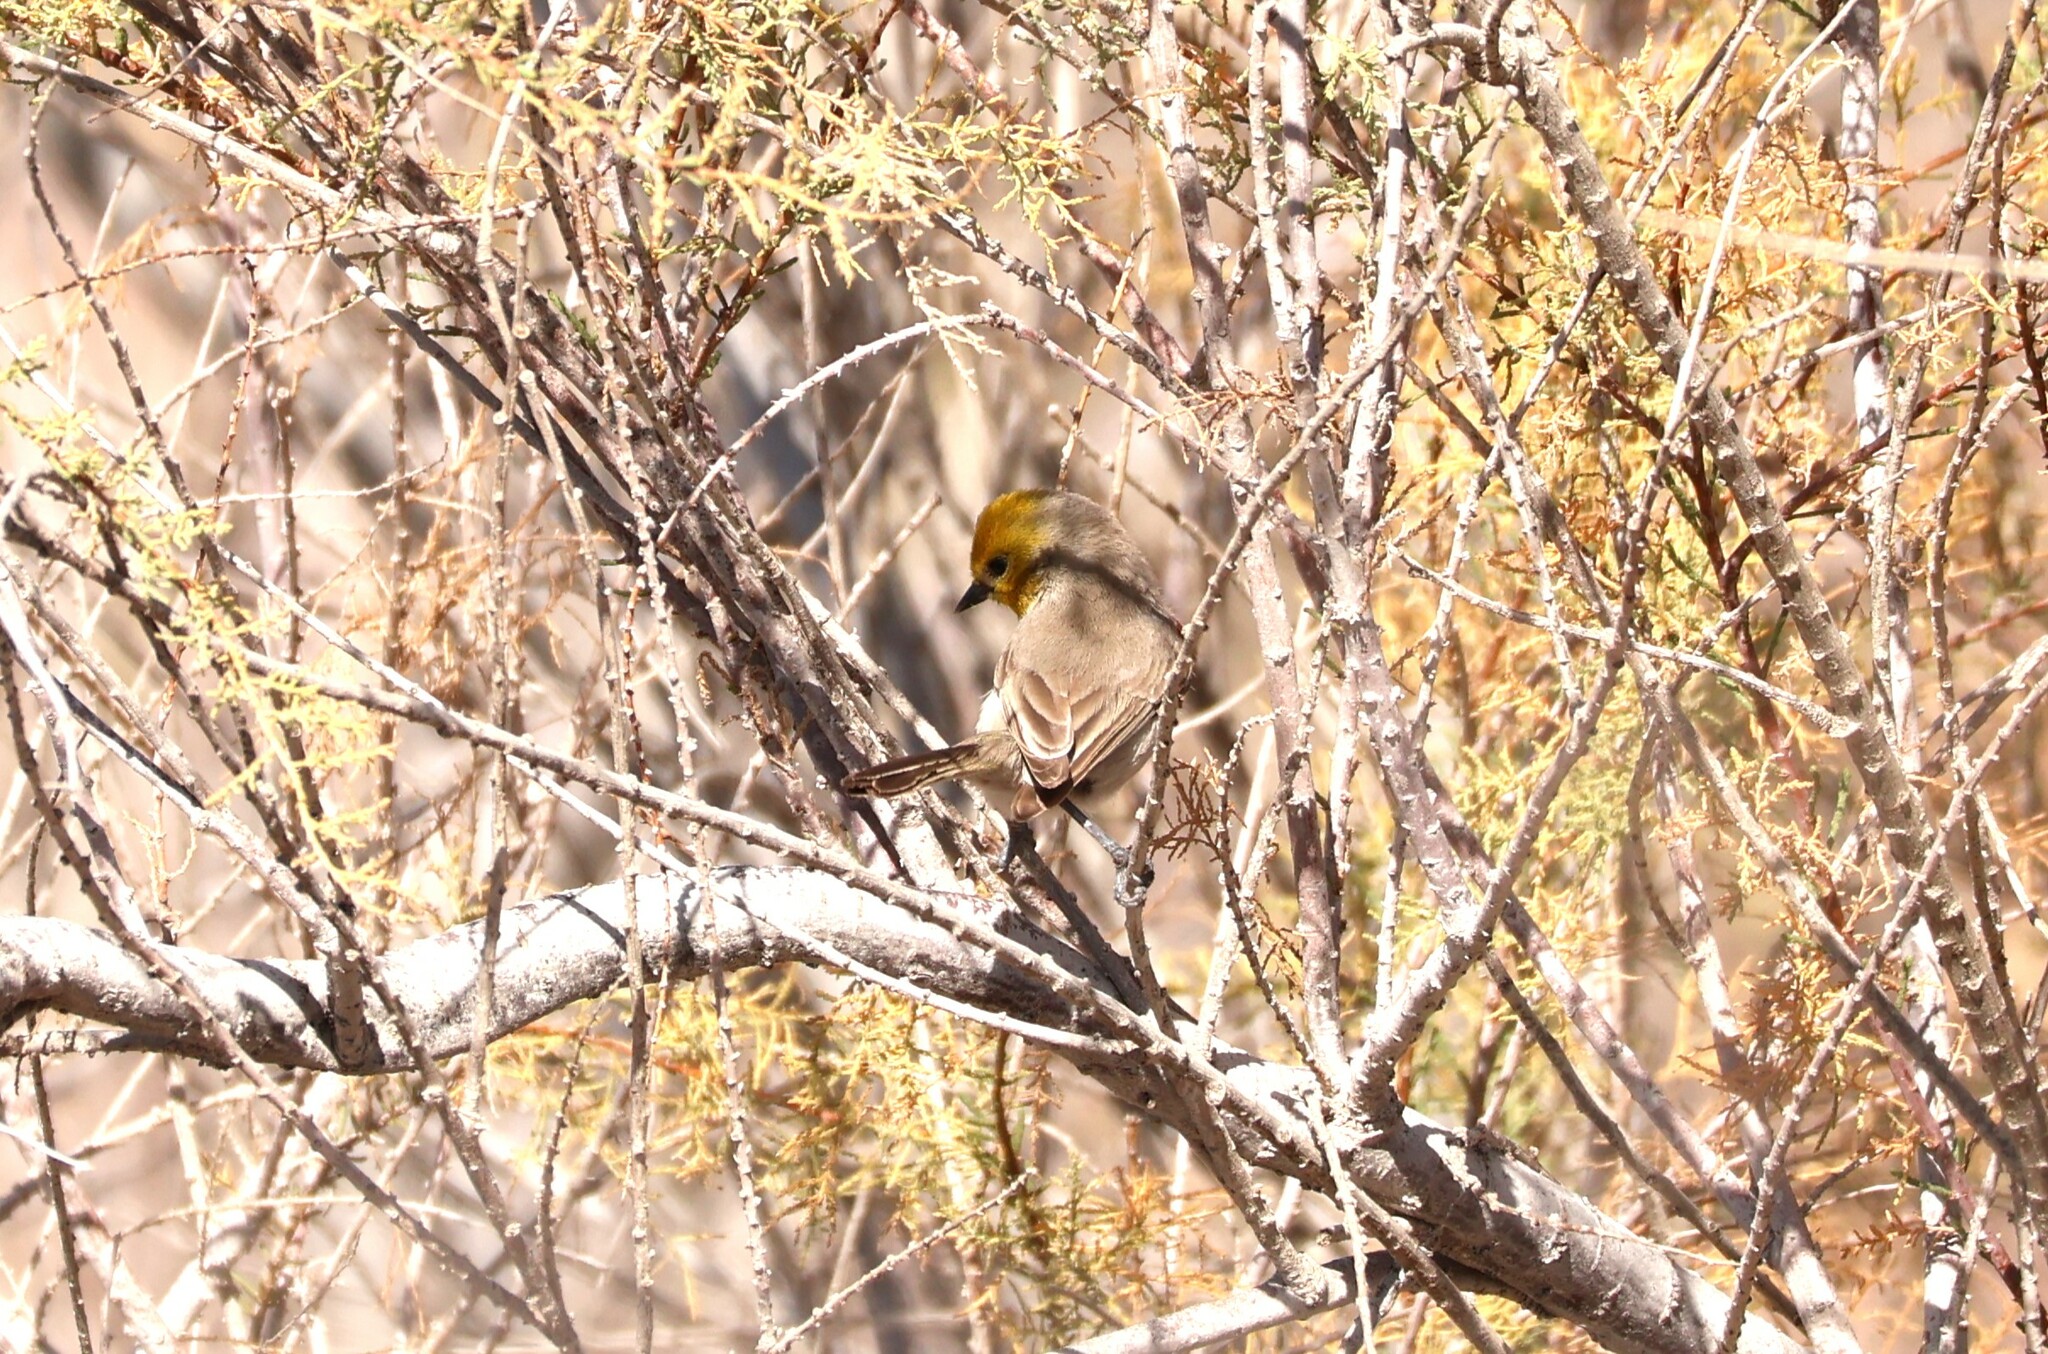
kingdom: Animalia
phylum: Chordata
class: Aves
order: Passeriformes
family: Remizidae
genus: Auriparus
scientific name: Auriparus flaviceps
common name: Verdin
